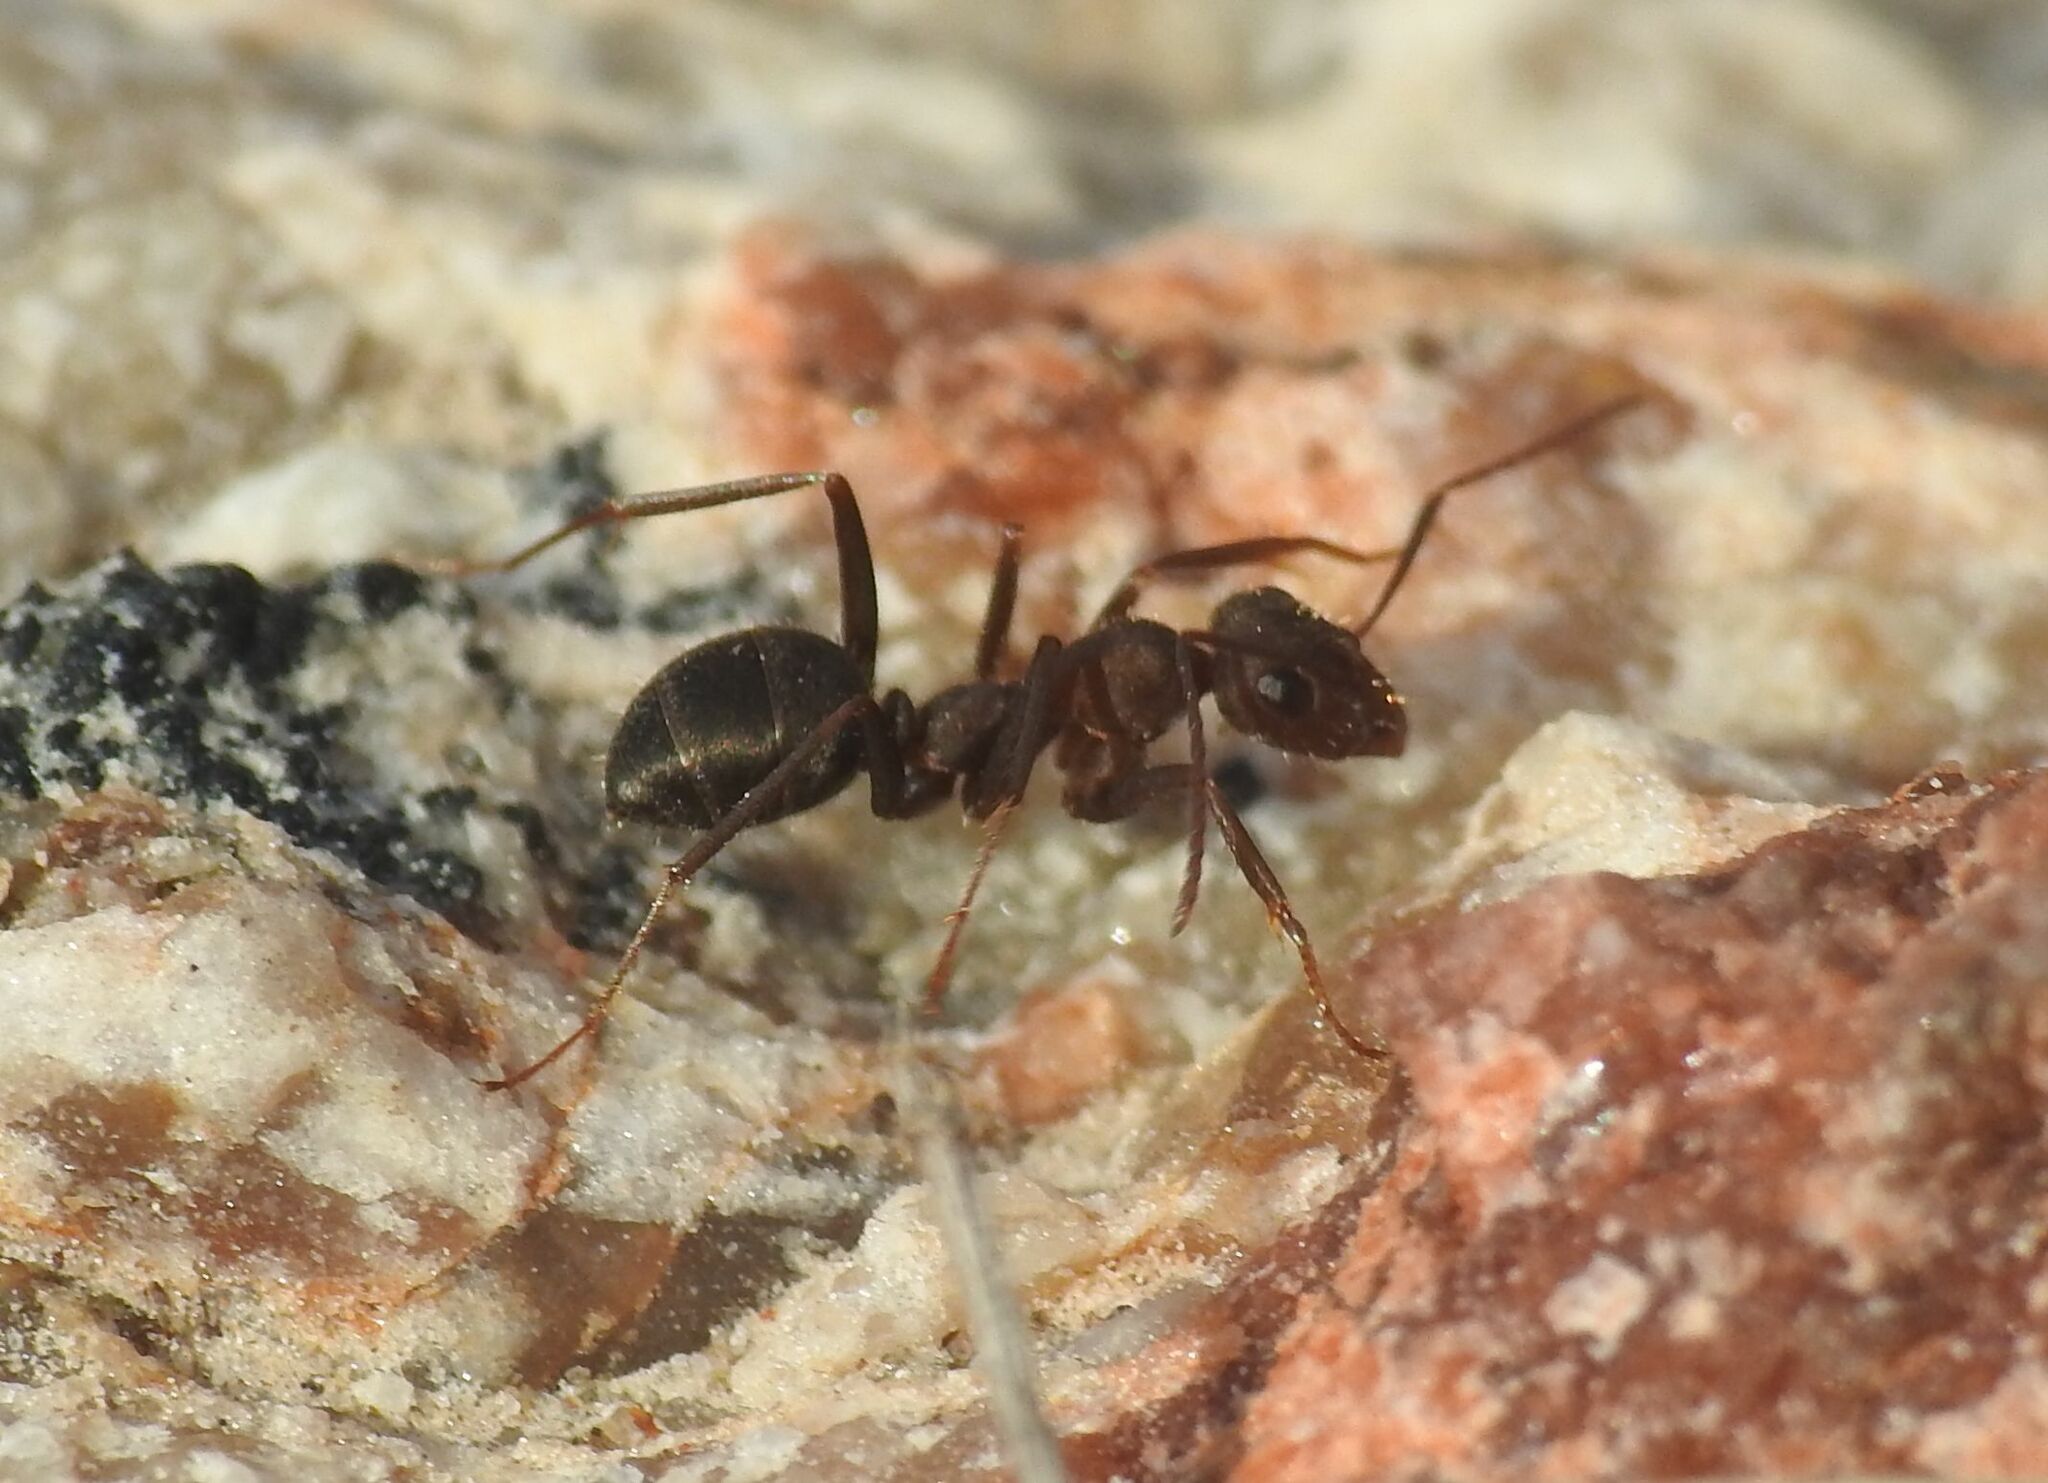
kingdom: Animalia
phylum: Arthropoda
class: Insecta
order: Hymenoptera
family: Formicidae
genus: Formica
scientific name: Formica subrufa
